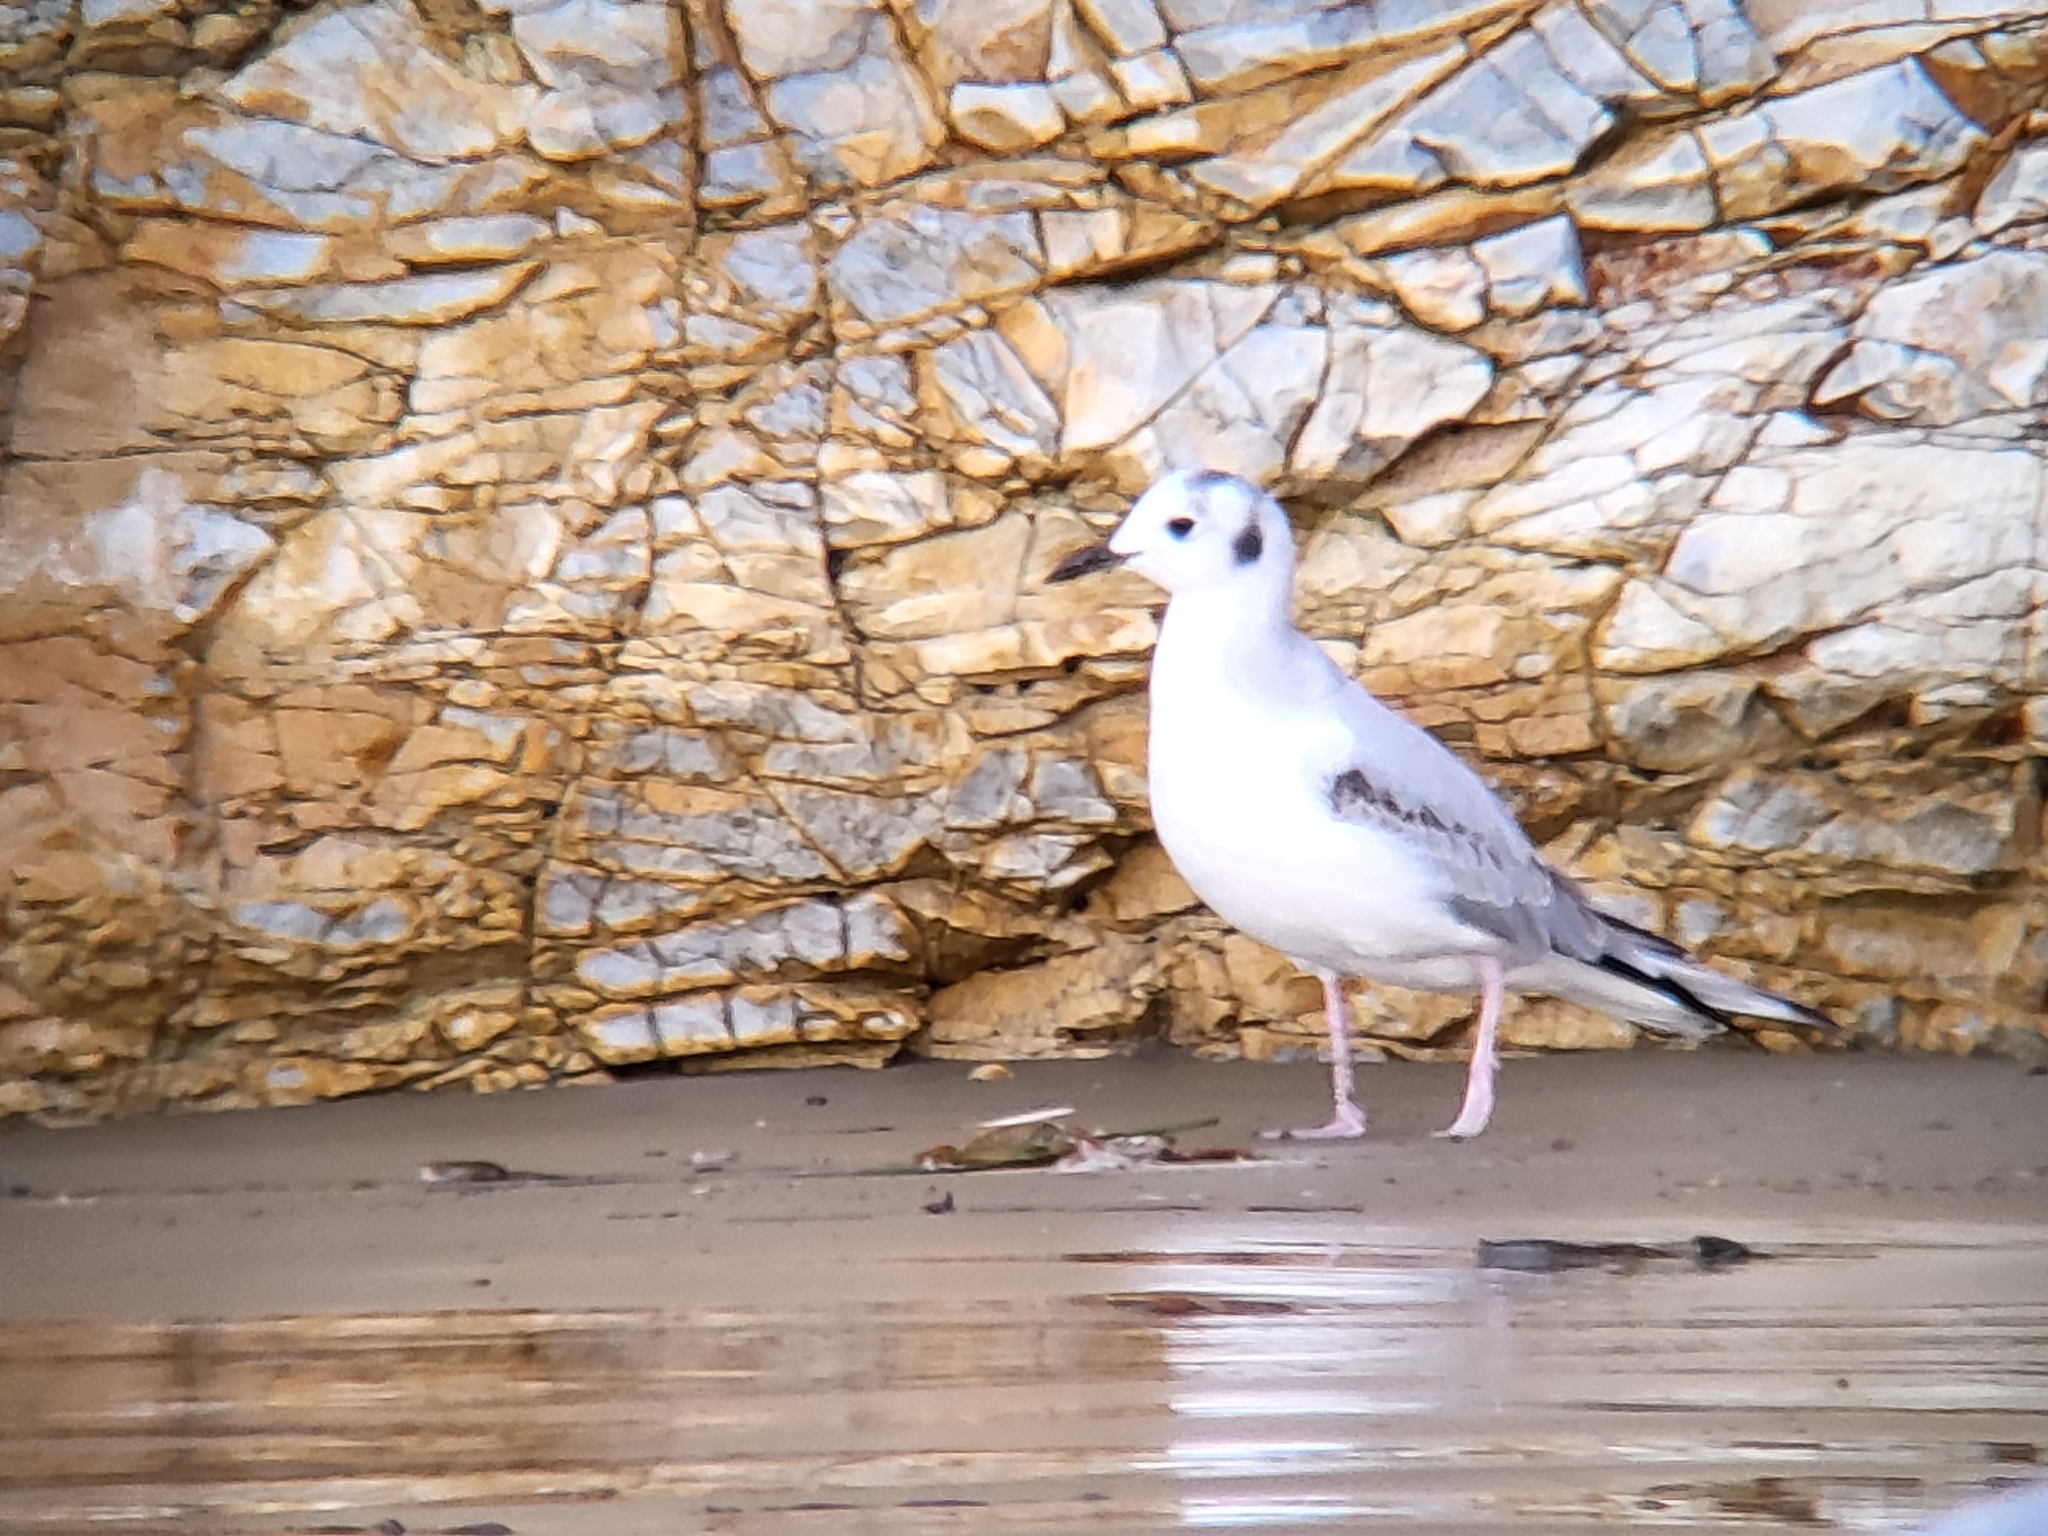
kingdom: Animalia
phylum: Chordata
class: Aves
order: Charadriiformes
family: Laridae
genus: Chroicocephalus
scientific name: Chroicocephalus philadelphia
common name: Bonaparte's gull
